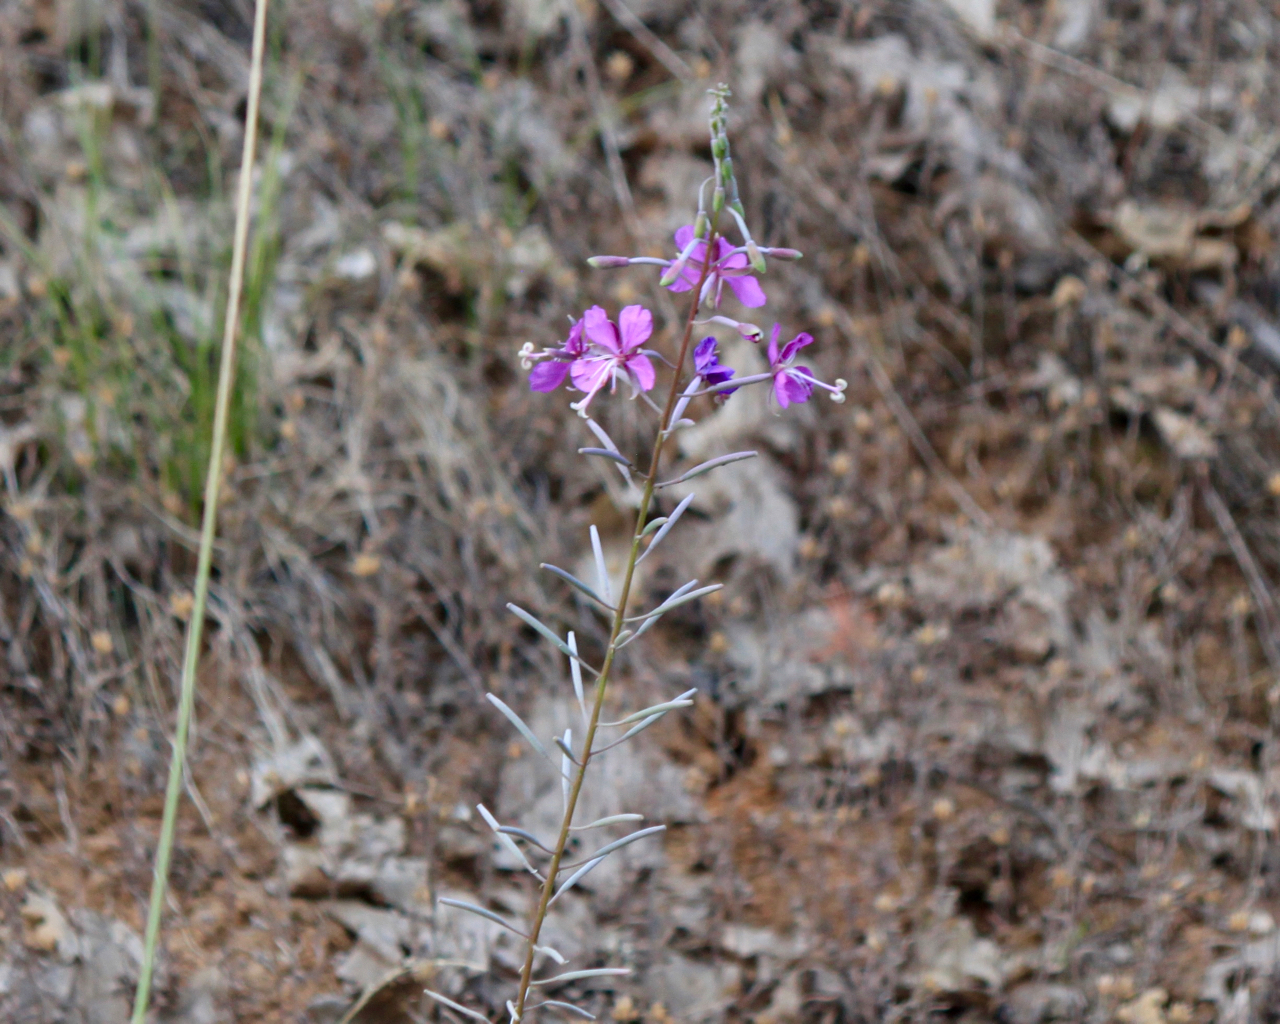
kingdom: Plantae
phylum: Tracheophyta
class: Magnoliopsida
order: Myrtales
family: Onagraceae
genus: Chamaenerion
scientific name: Chamaenerion angustifolium
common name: Fireweed
